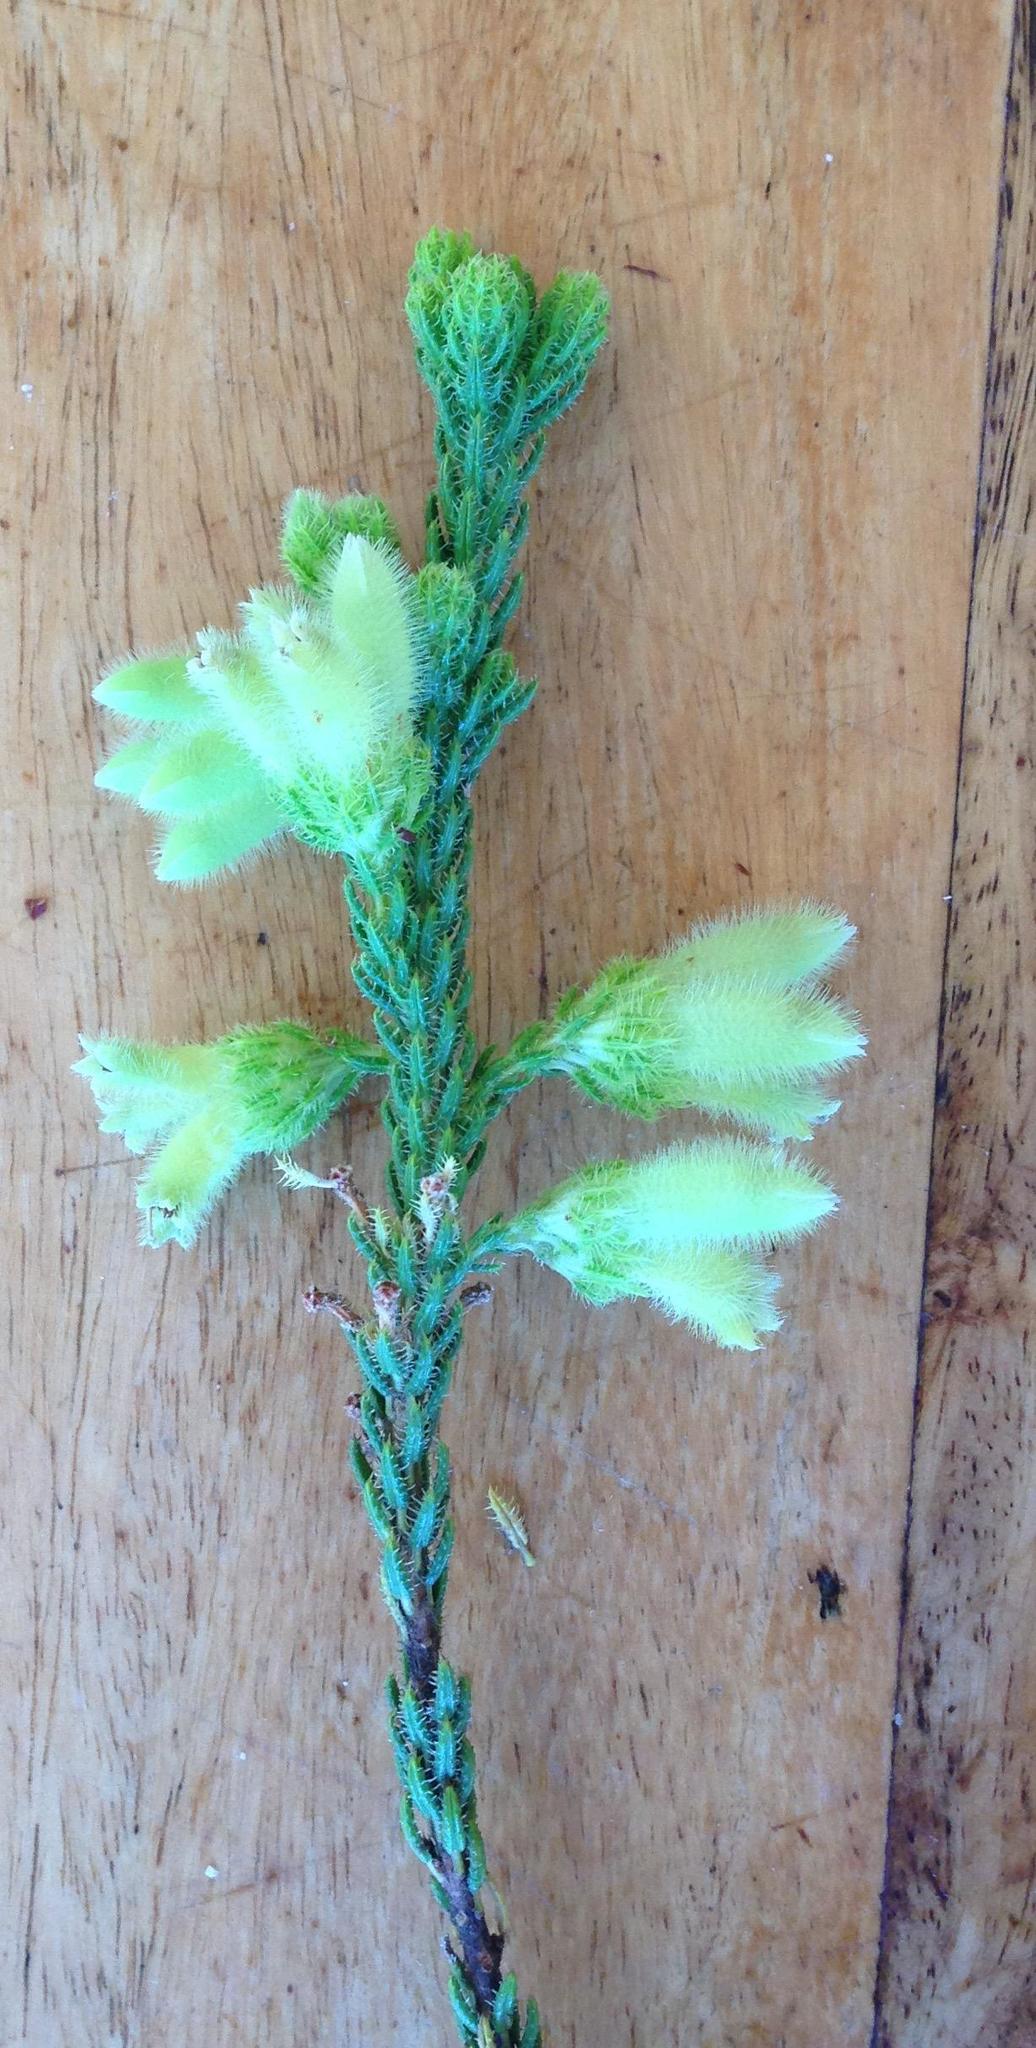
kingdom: Plantae
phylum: Tracheophyta
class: Magnoliopsida
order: Ericales
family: Ericaceae
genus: Erica
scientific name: Erica sparmannii
